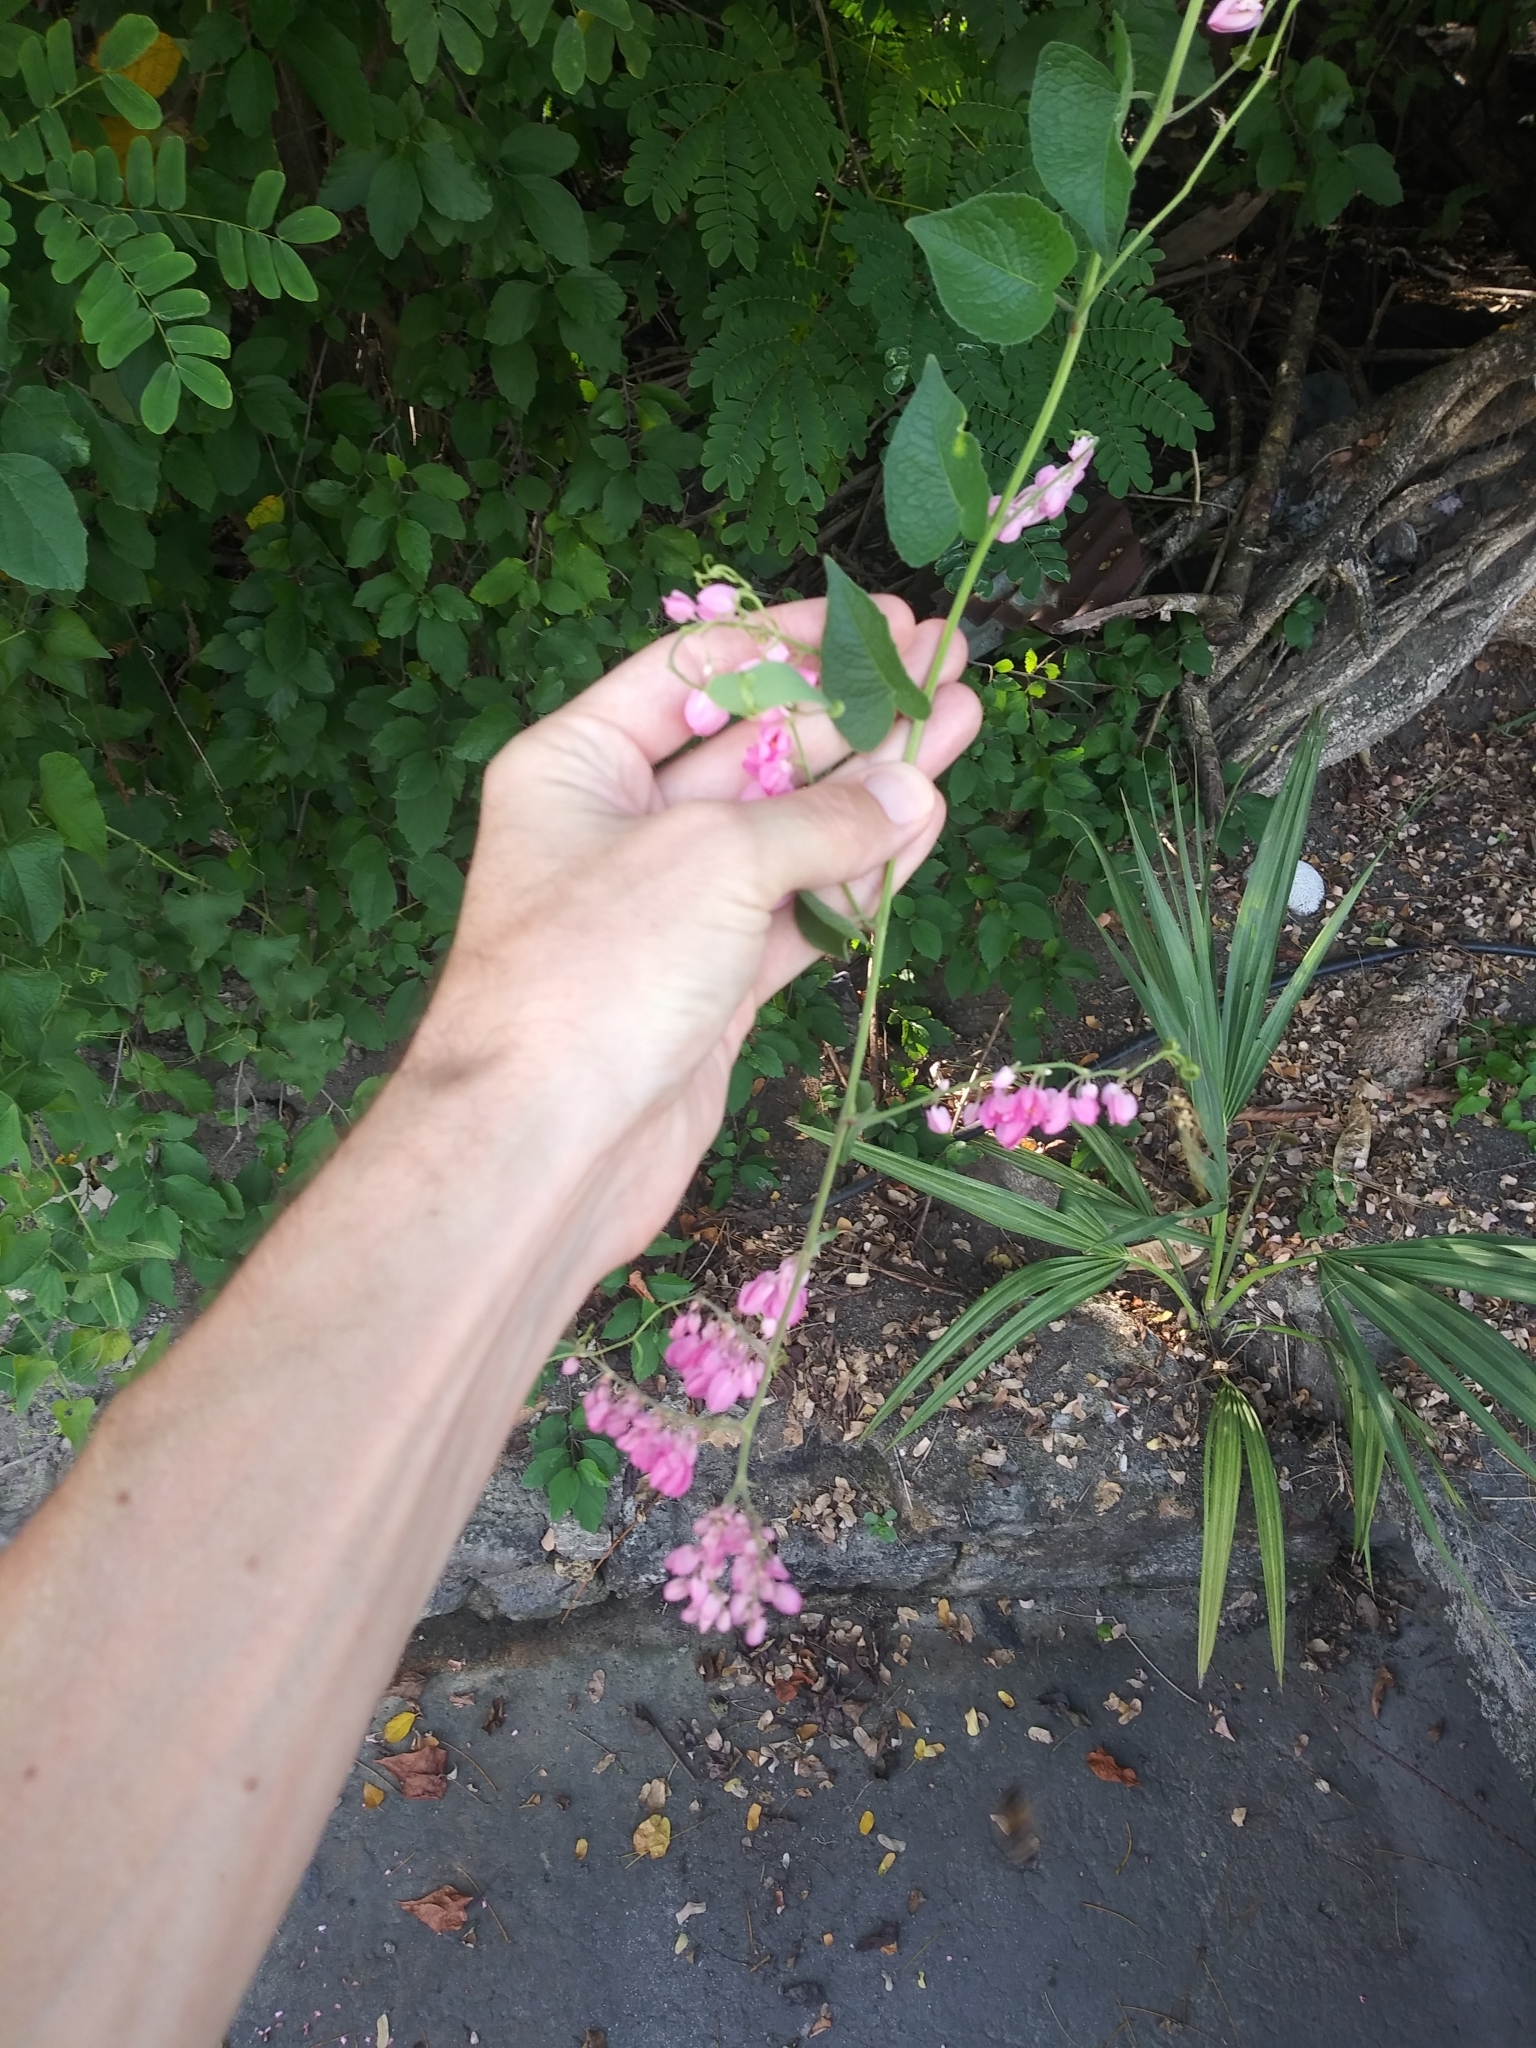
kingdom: Plantae
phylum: Tracheophyta
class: Magnoliopsida
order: Caryophyllales
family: Polygonaceae
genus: Antigonon
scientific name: Antigonon leptopus
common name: Coral vine
